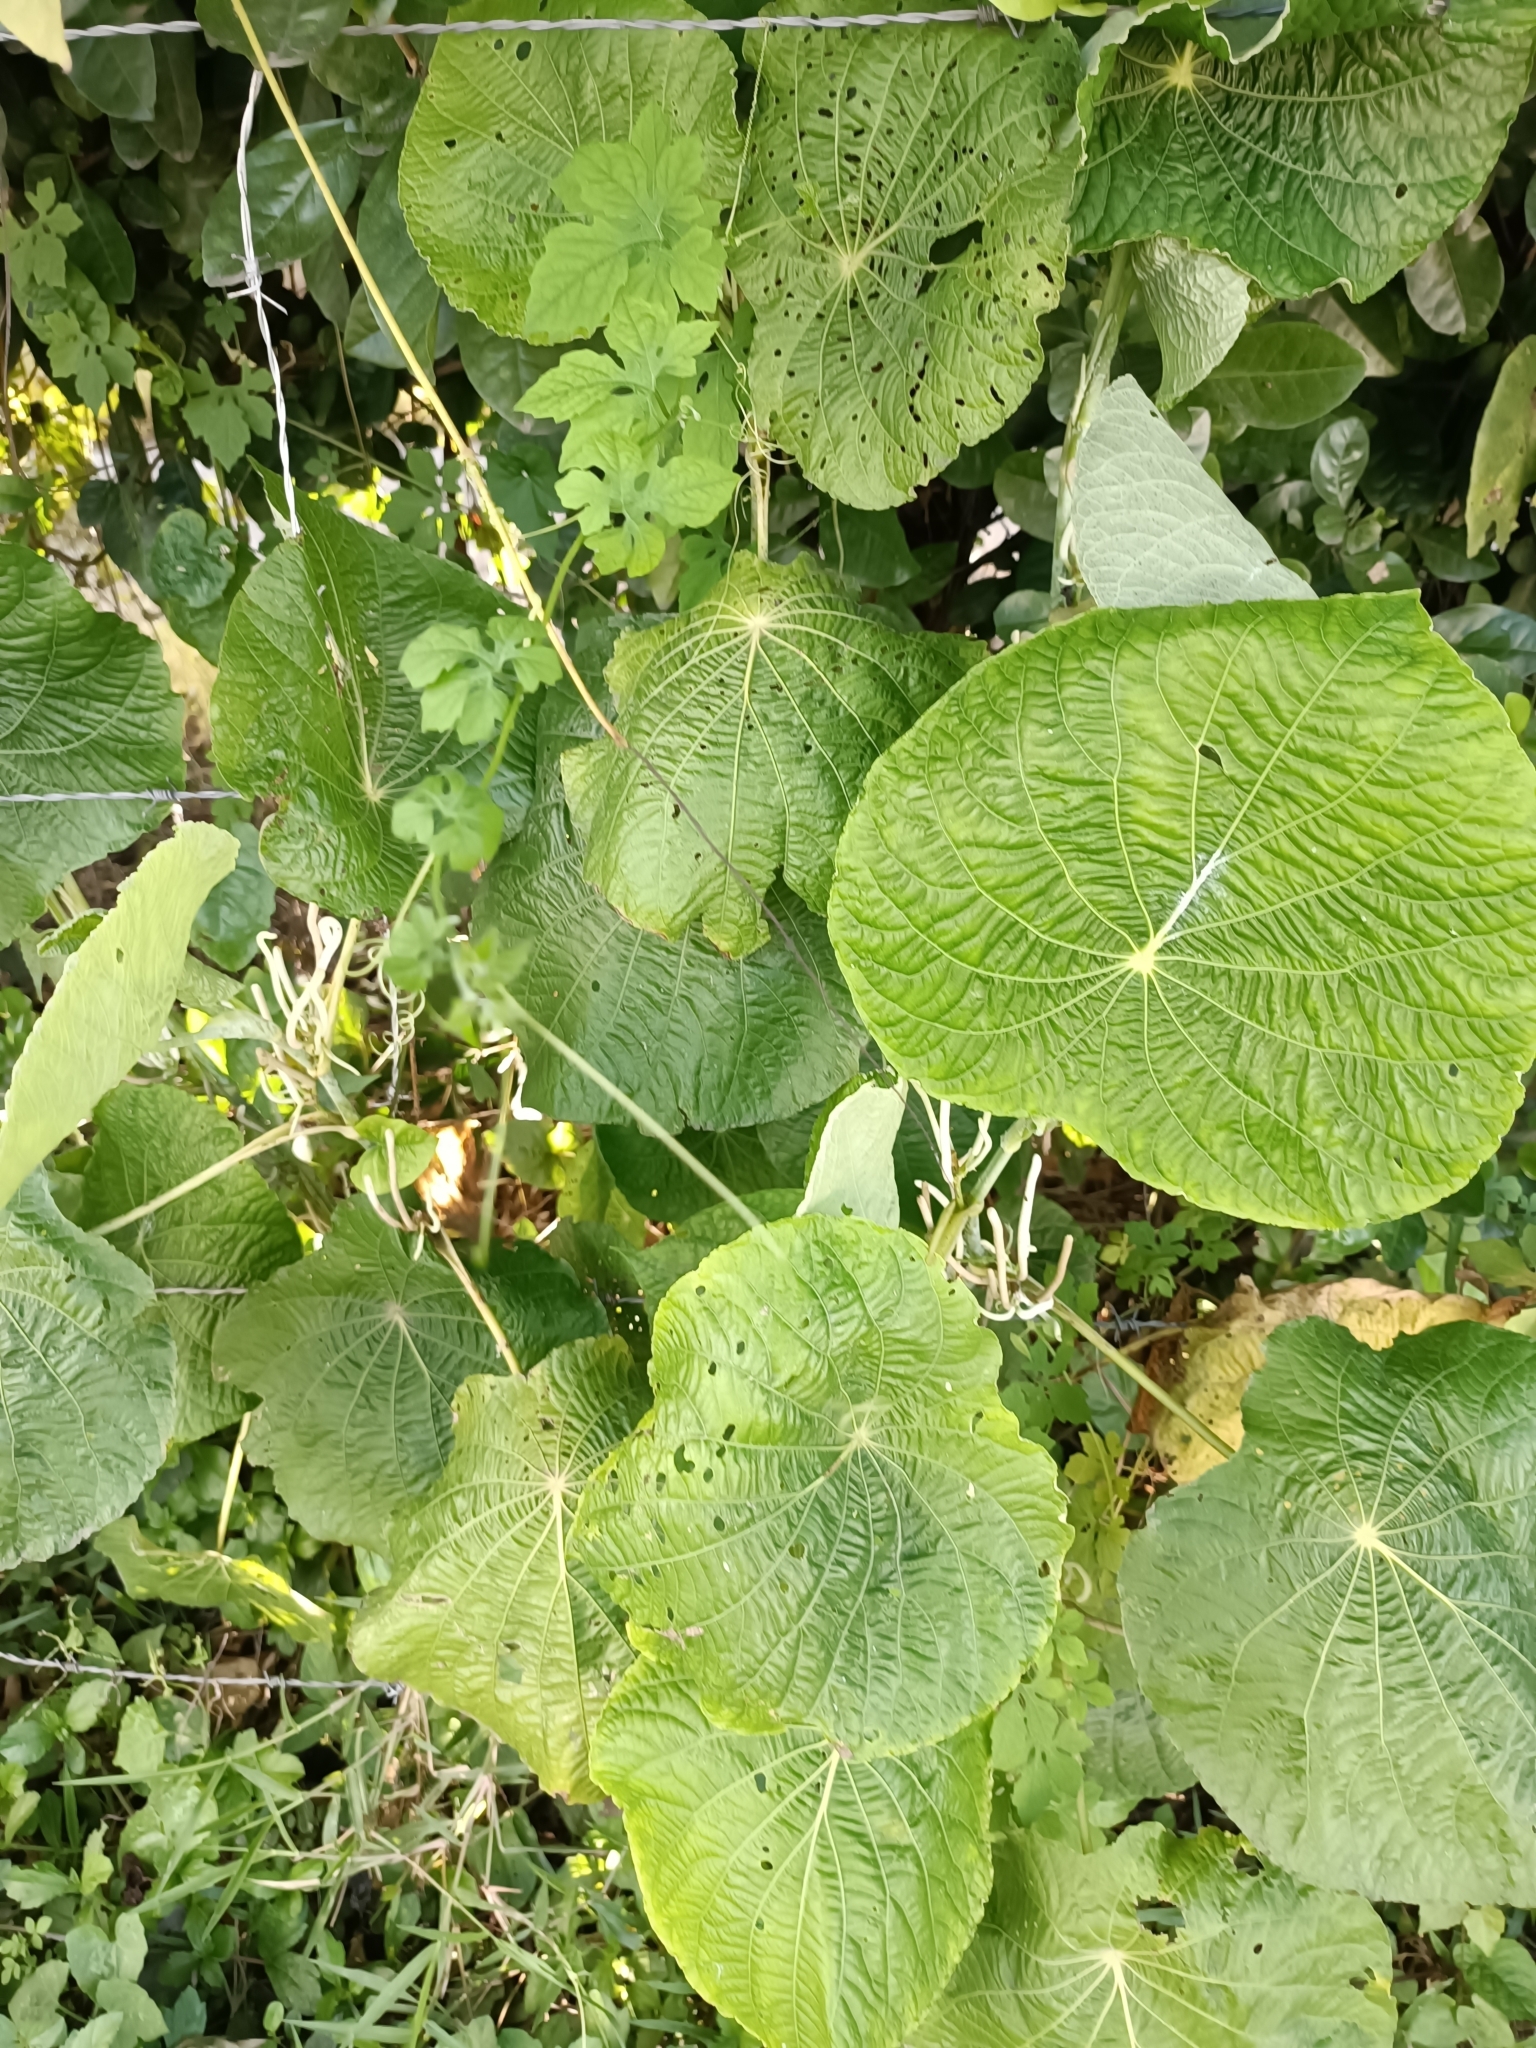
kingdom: Plantae
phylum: Tracheophyta
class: Magnoliopsida
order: Piperales
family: Piperaceae
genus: Piper
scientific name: Piper peltatum
